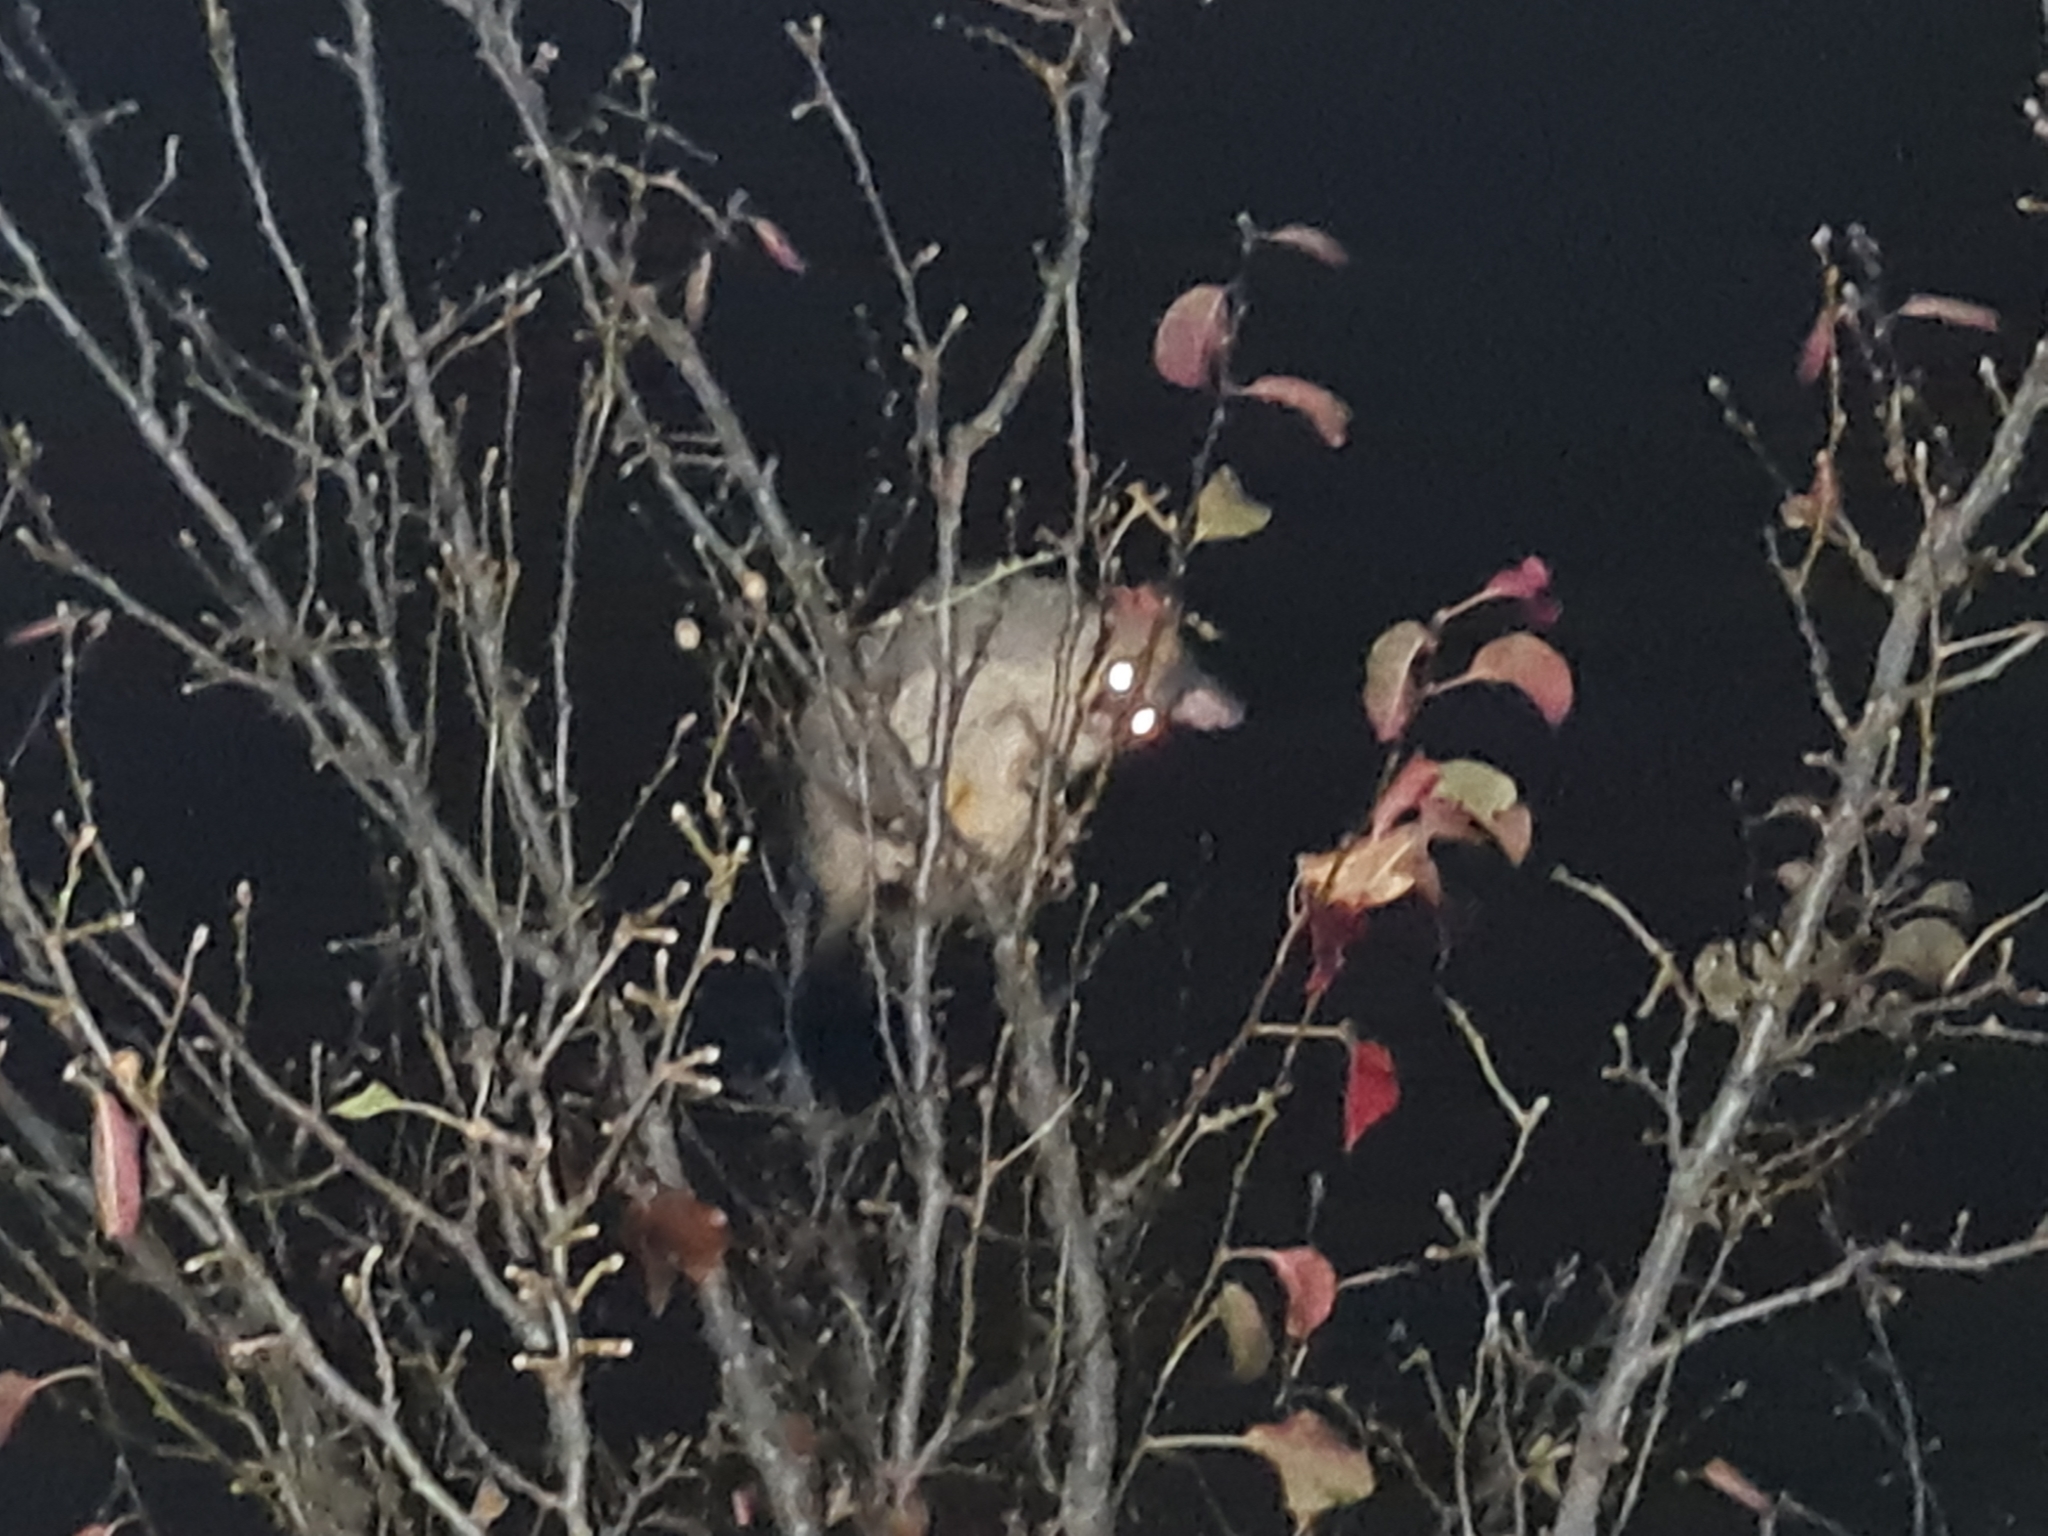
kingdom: Animalia
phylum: Chordata
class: Mammalia
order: Diprotodontia
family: Phalangeridae
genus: Trichosurus
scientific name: Trichosurus vulpecula
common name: Common brushtail
